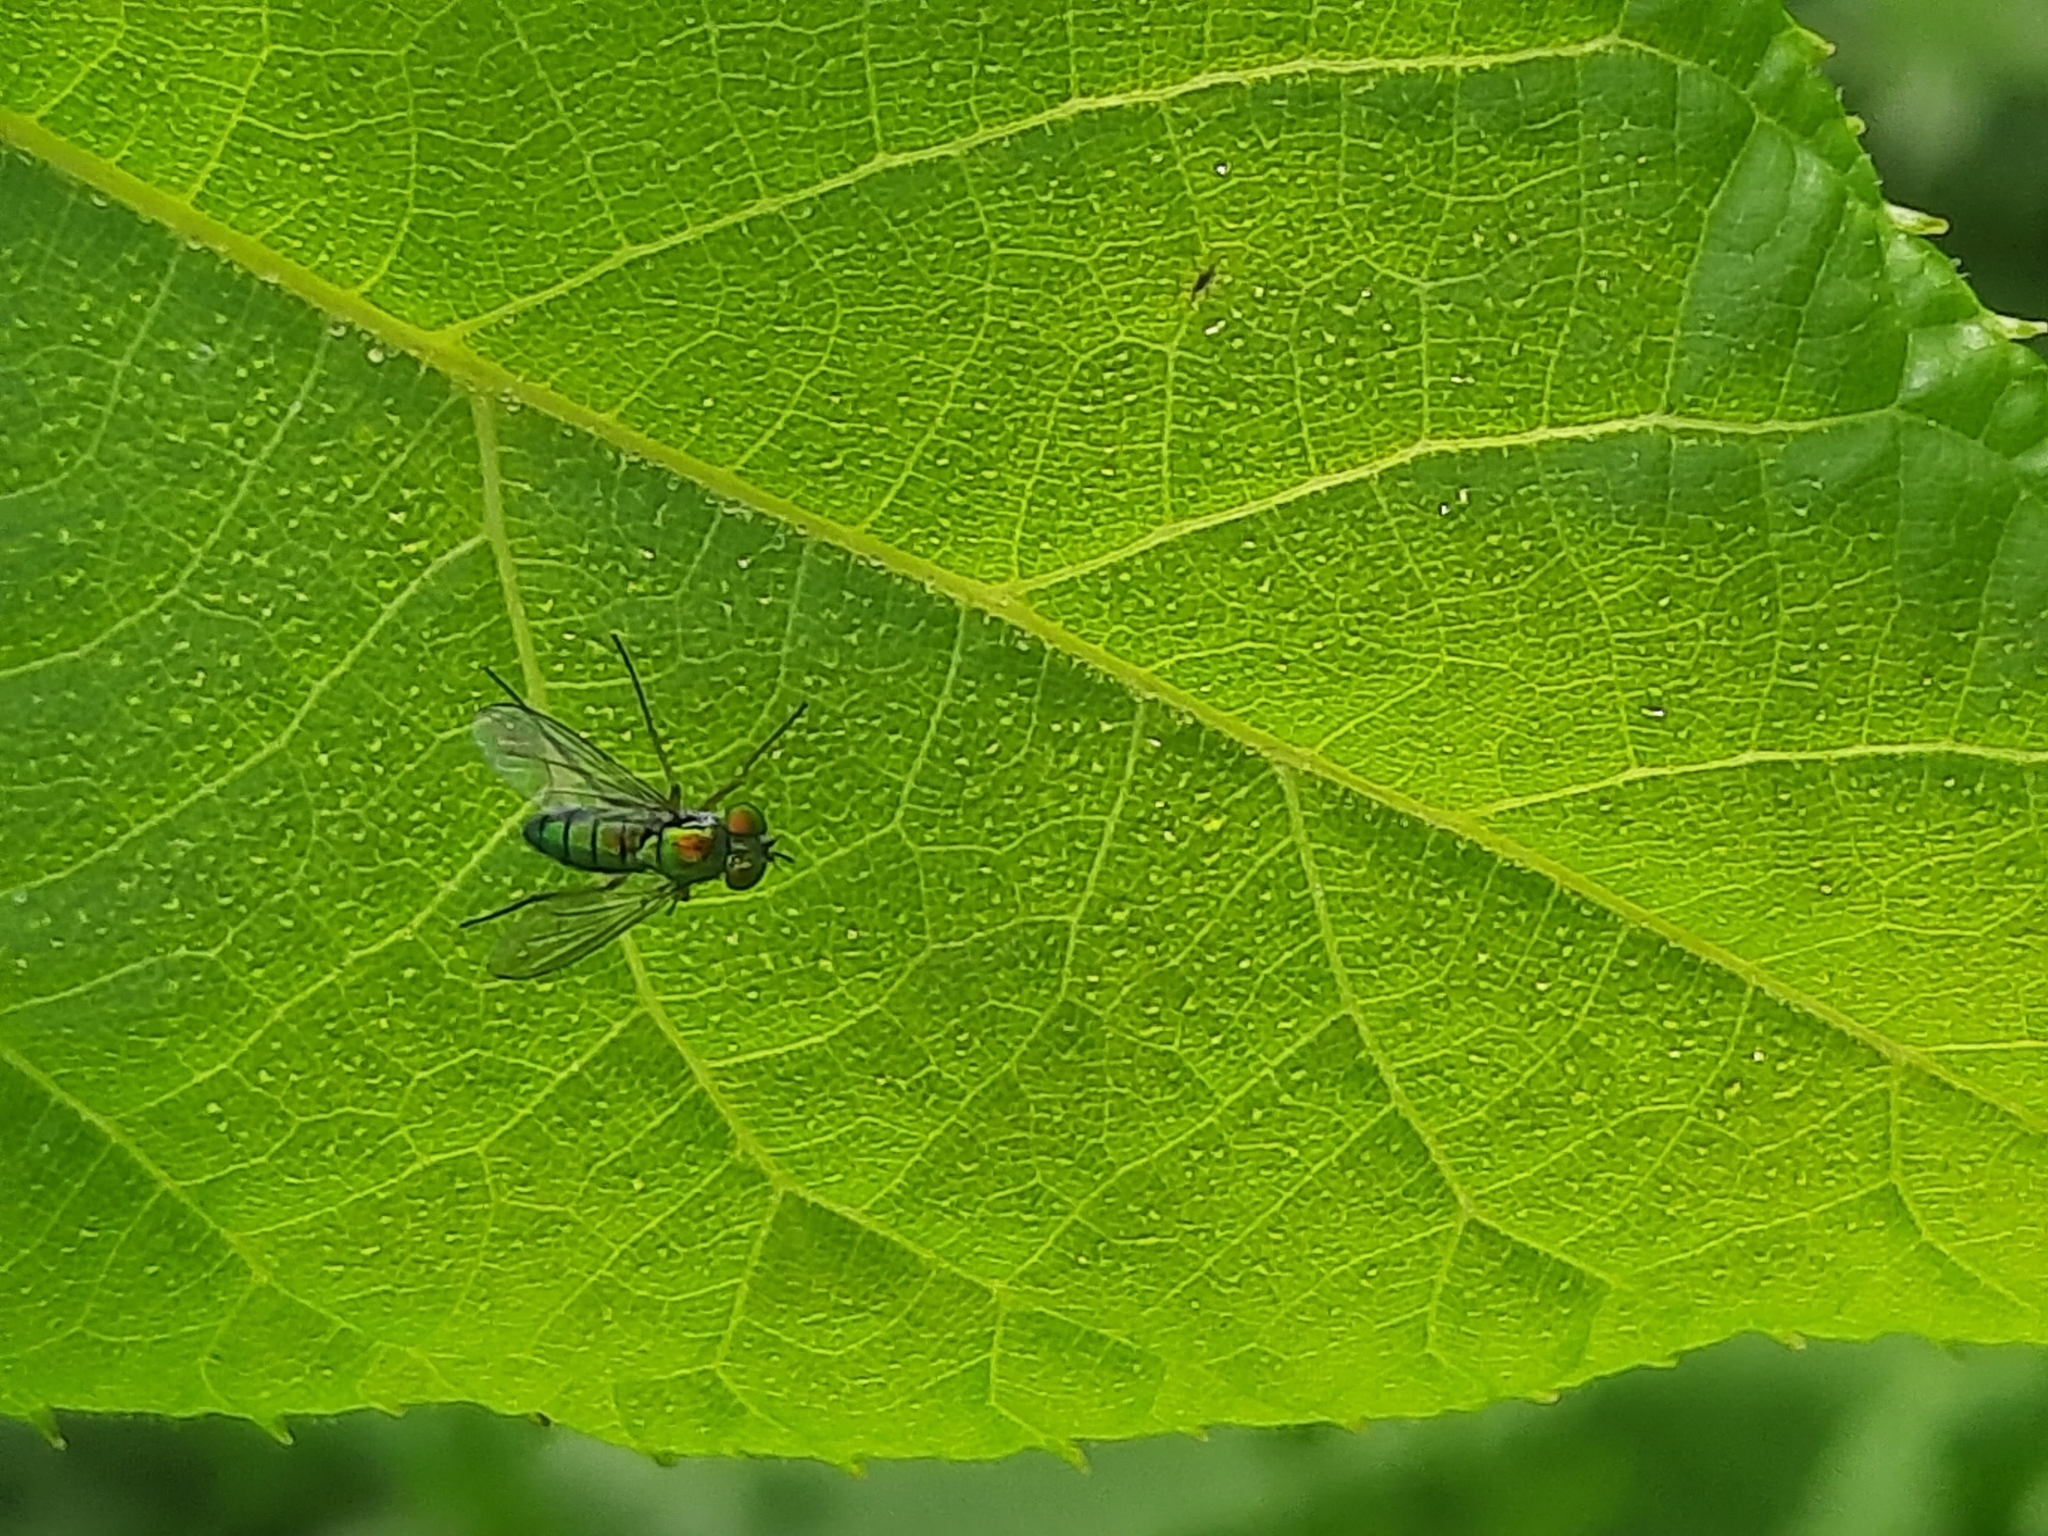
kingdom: Animalia
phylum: Arthropoda
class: Insecta
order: Diptera
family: Dolichopodidae
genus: Condylostylus
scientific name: Condylostylus
